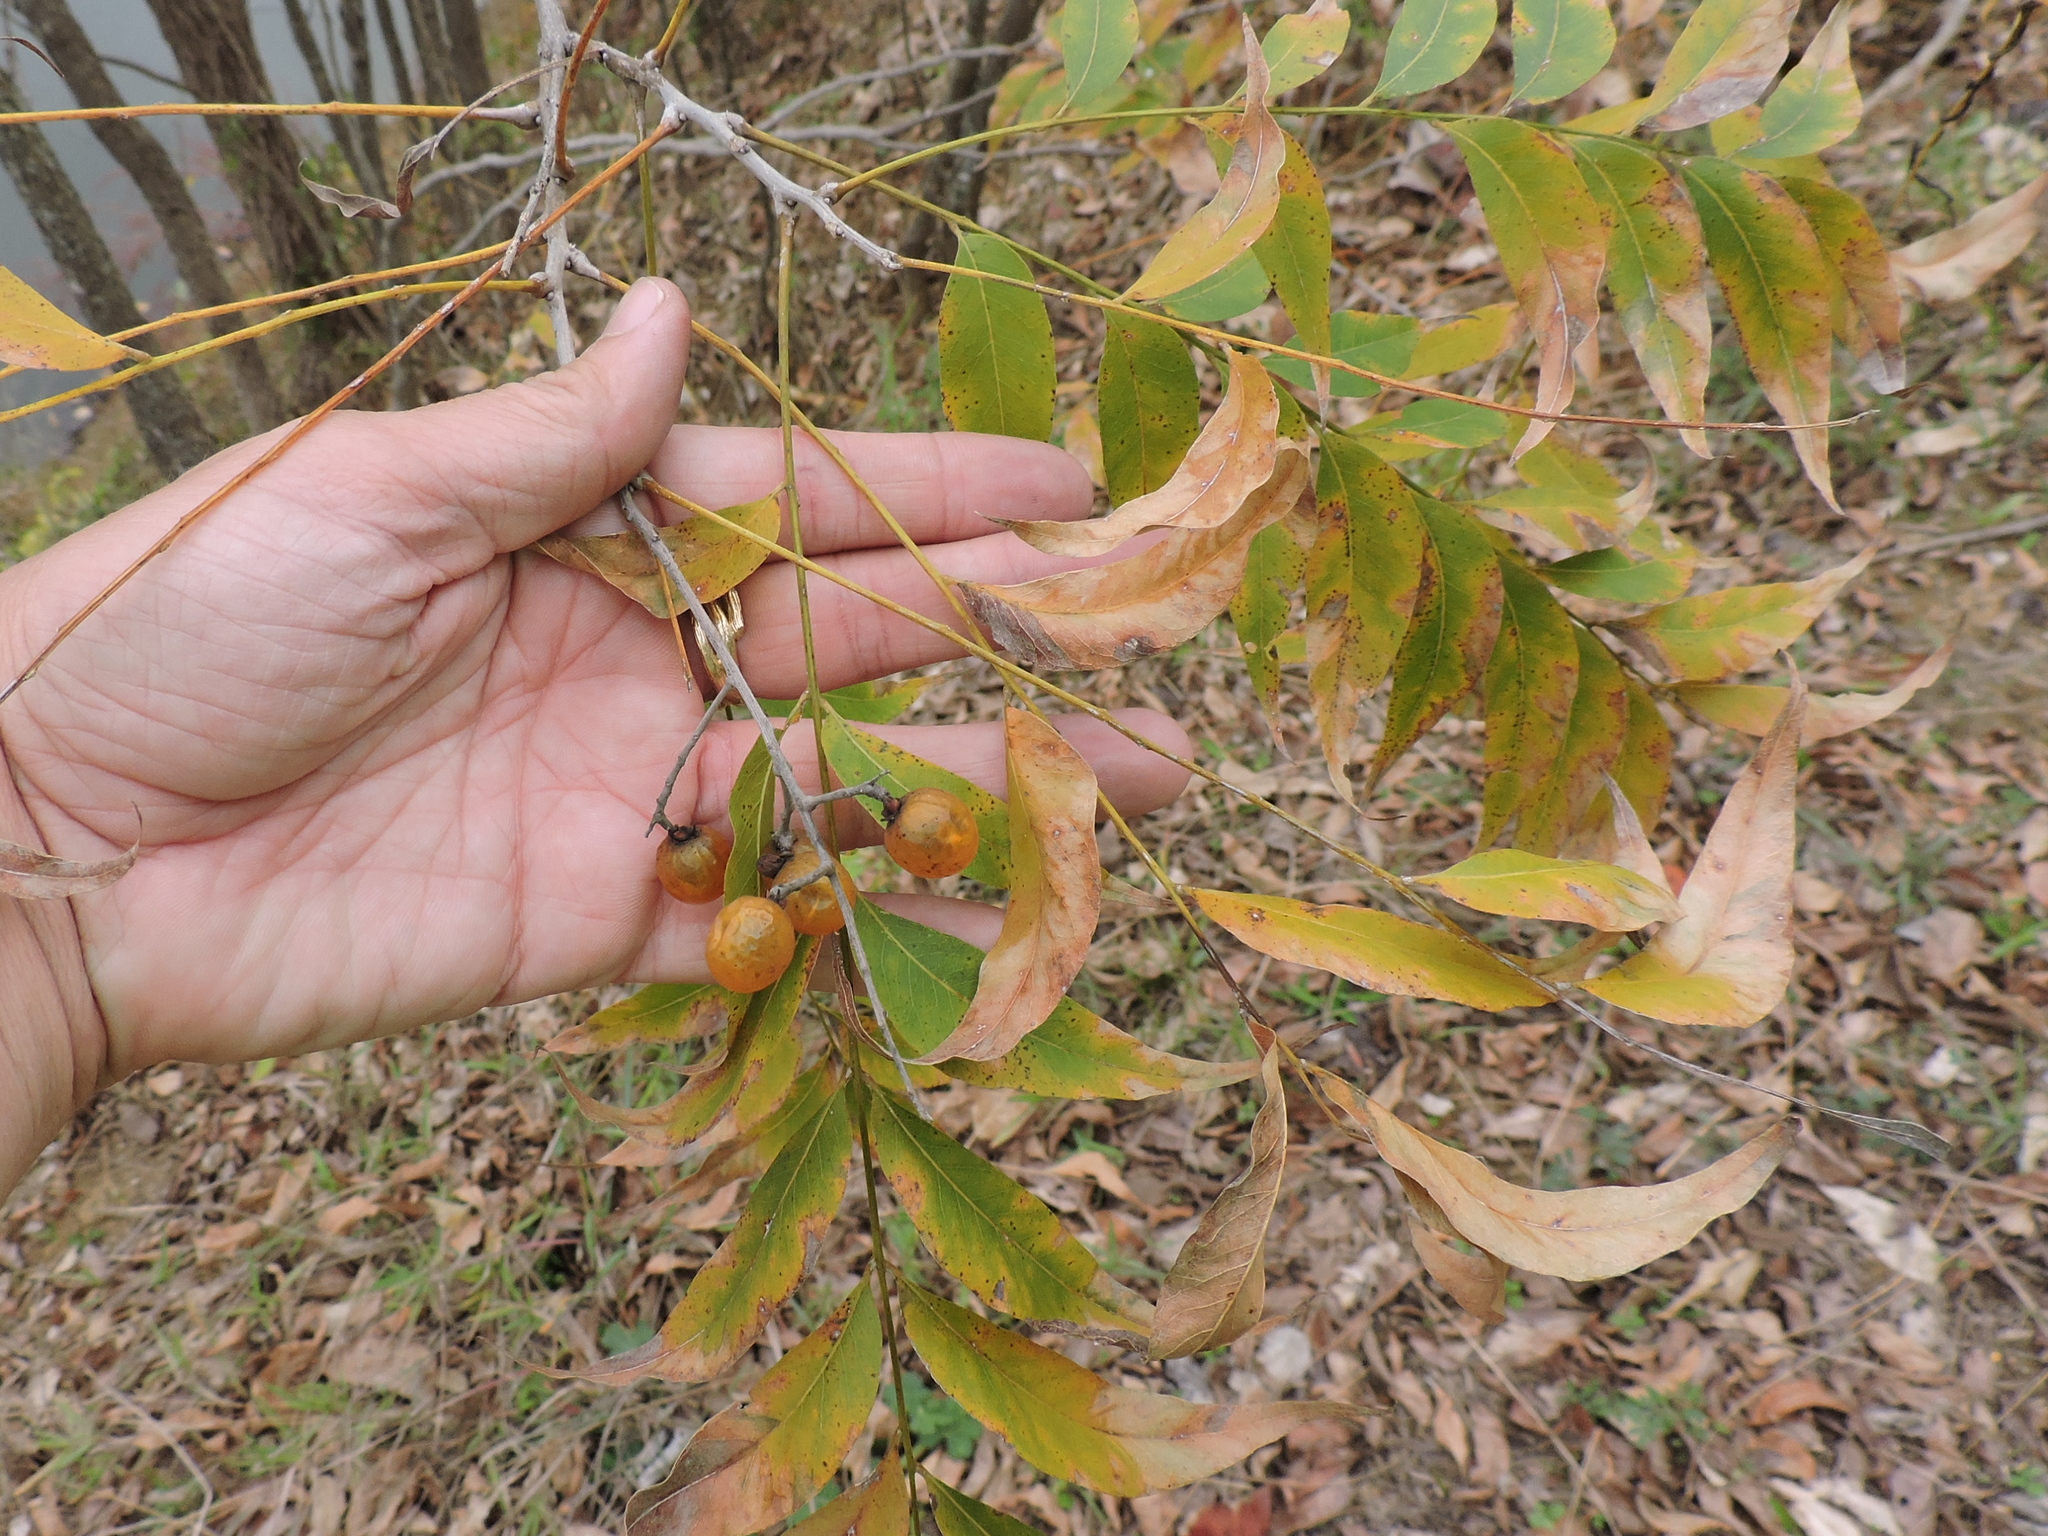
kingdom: Plantae
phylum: Tracheophyta
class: Magnoliopsida
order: Sapindales
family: Sapindaceae
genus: Sapindus
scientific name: Sapindus drummondii
